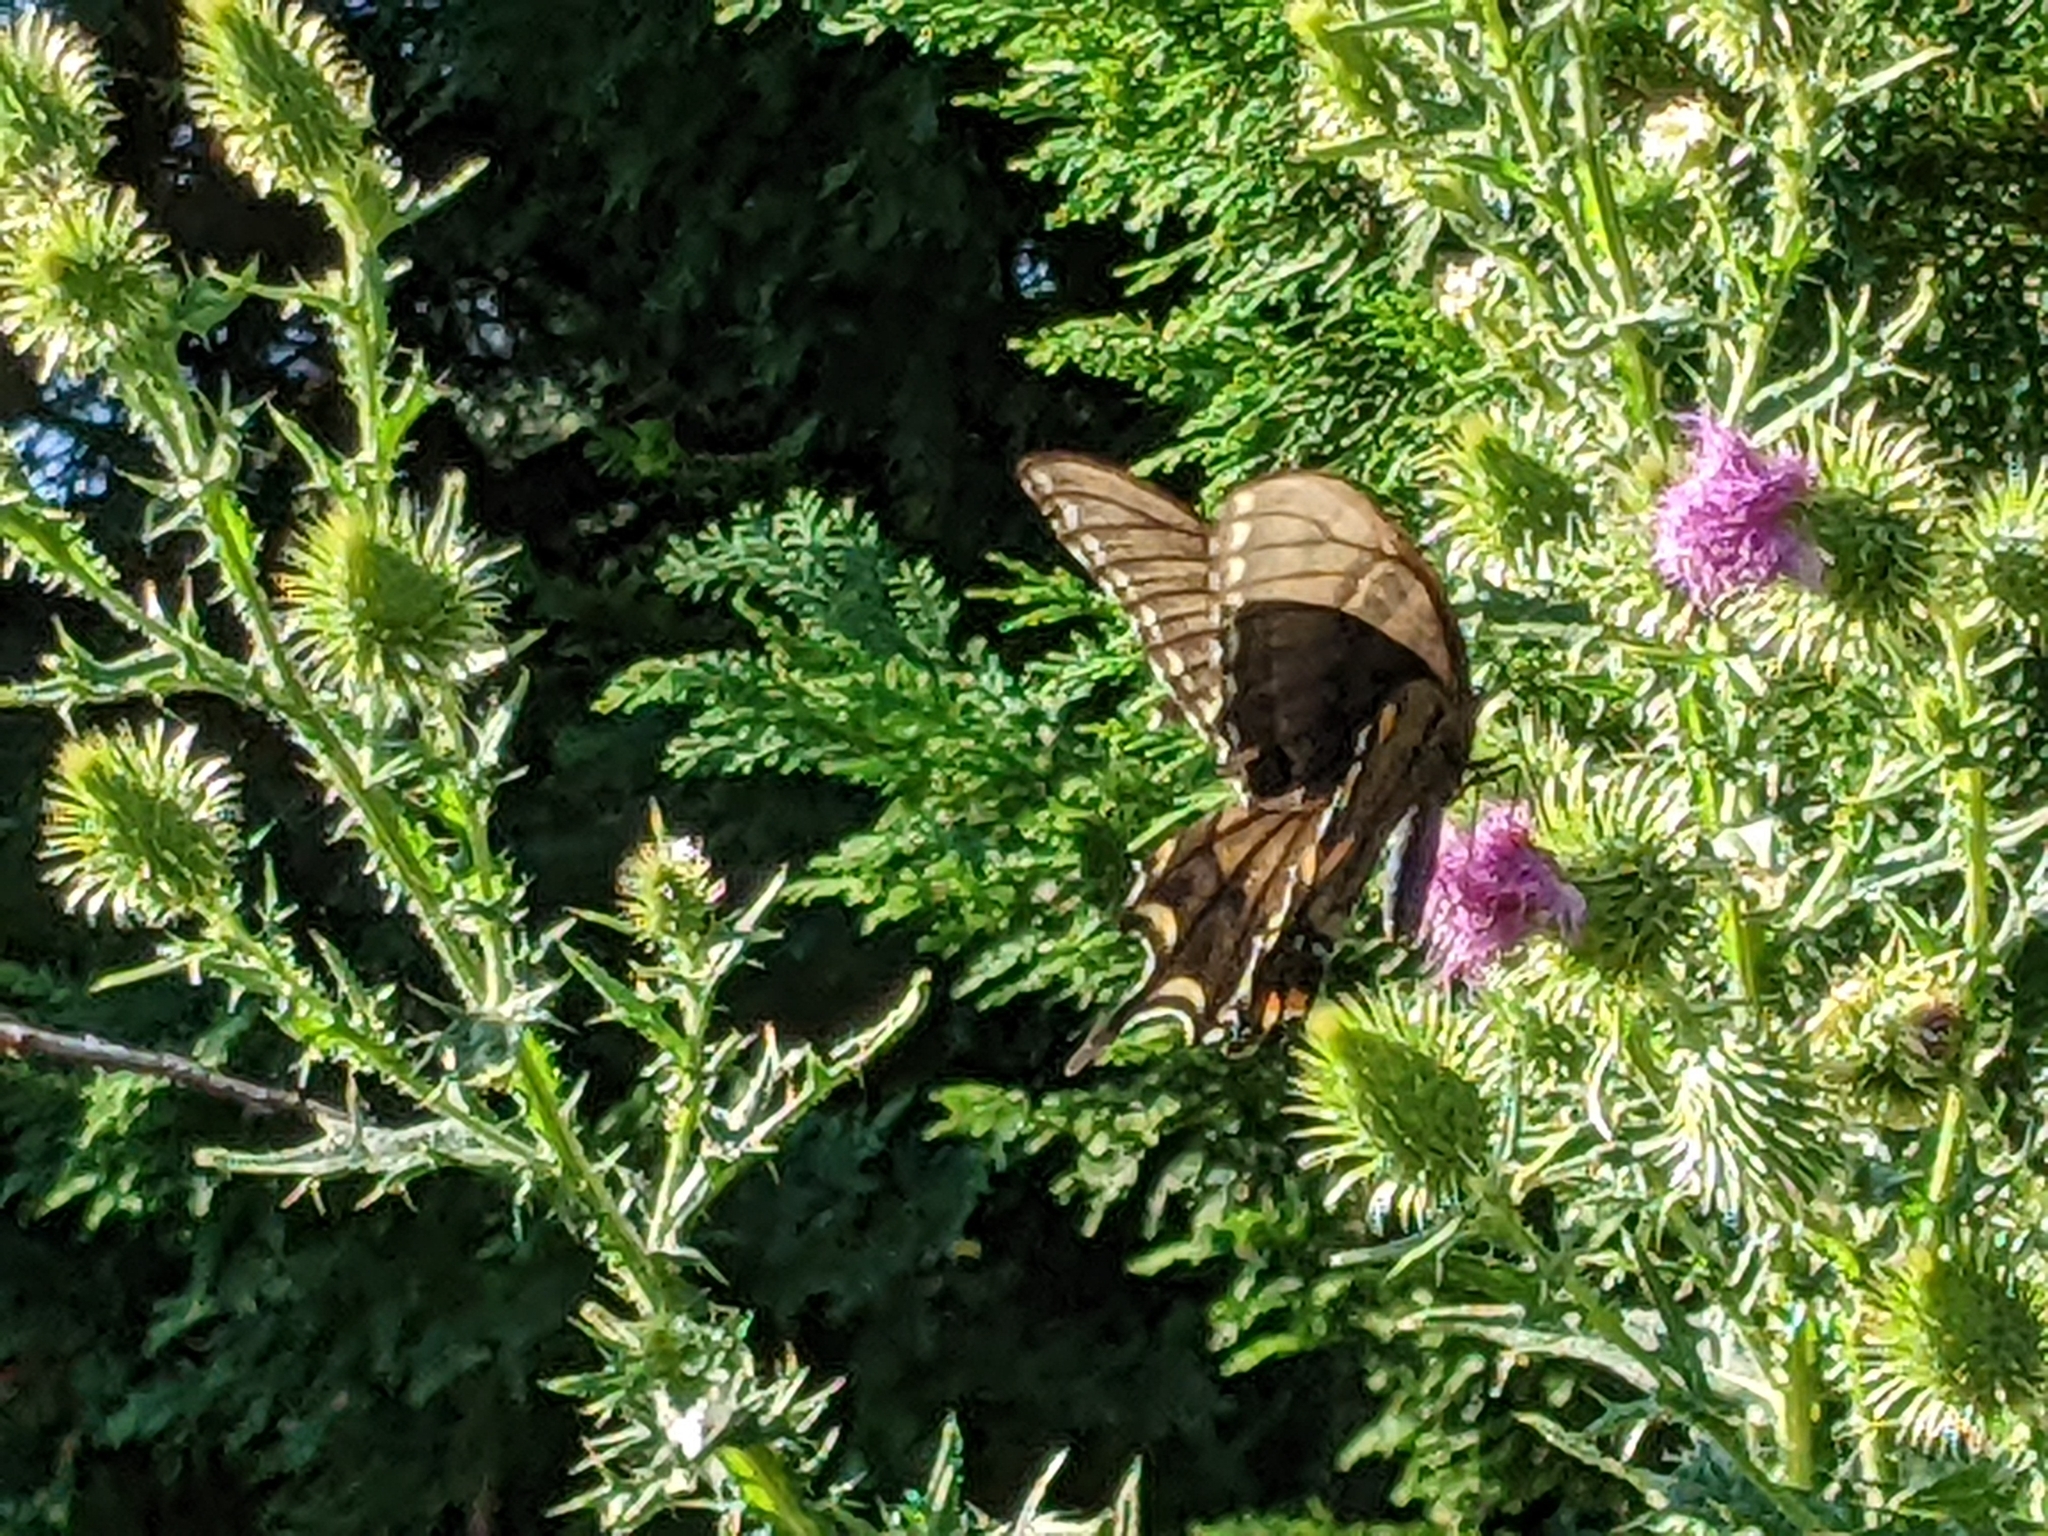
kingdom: Animalia
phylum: Arthropoda
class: Insecta
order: Lepidoptera
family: Papilionidae
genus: Papilio
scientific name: Papilio glaucus
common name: Tiger swallowtail
